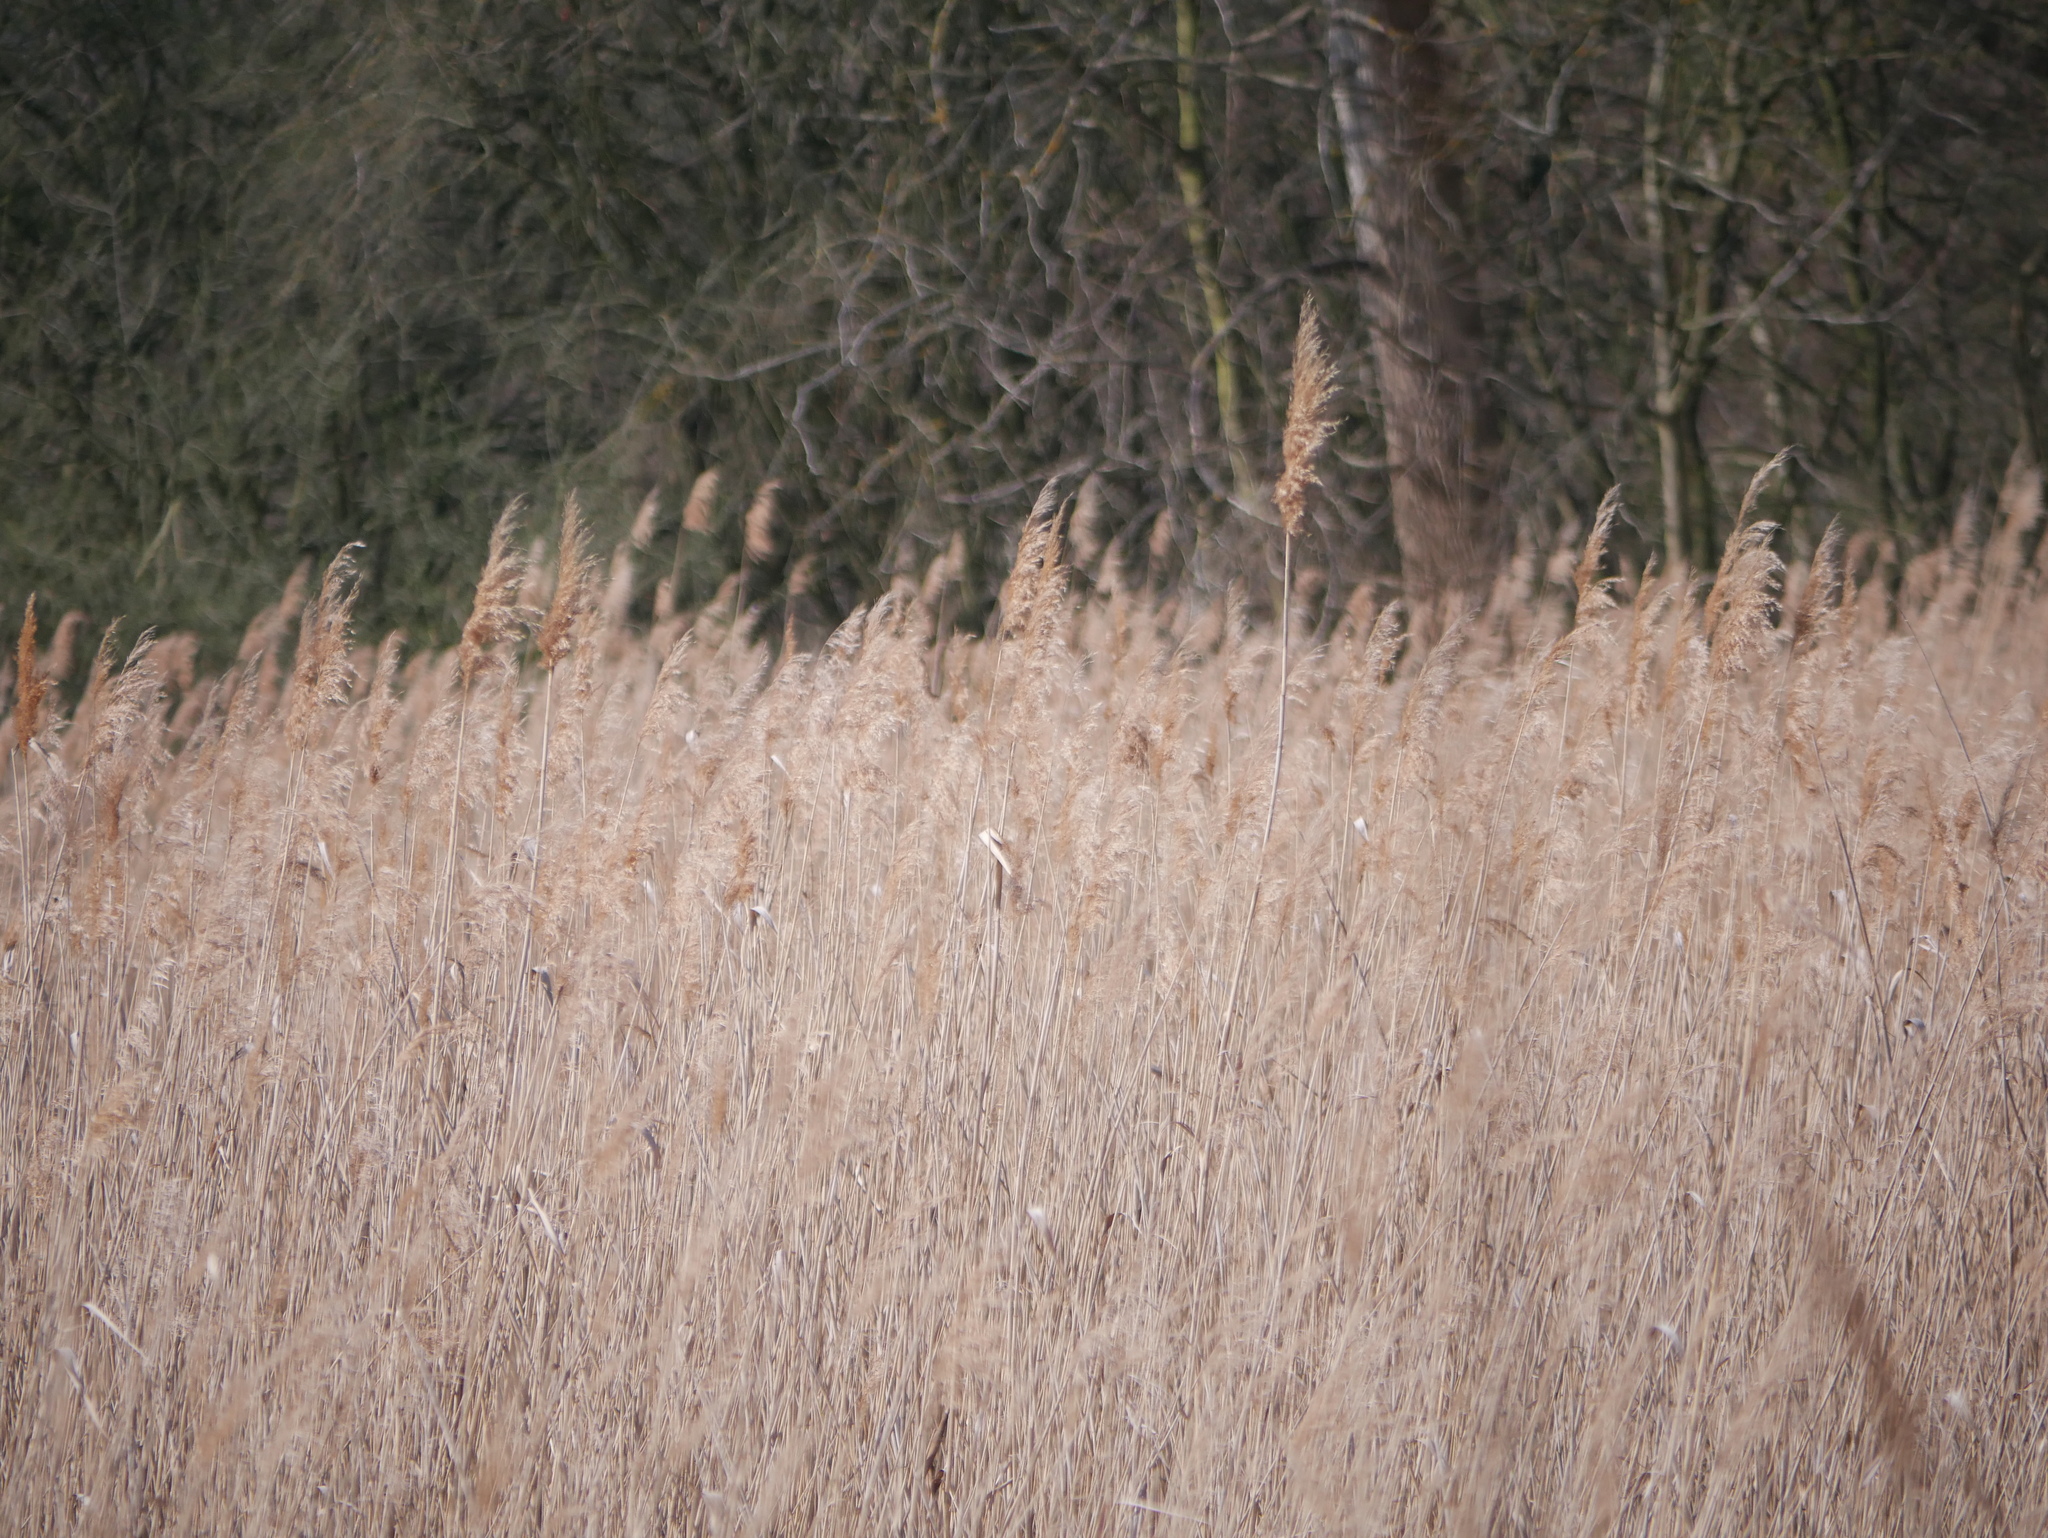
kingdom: Plantae
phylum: Tracheophyta
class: Liliopsida
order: Poales
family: Poaceae
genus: Phragmites
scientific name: Phragmites australis
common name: Common reed
